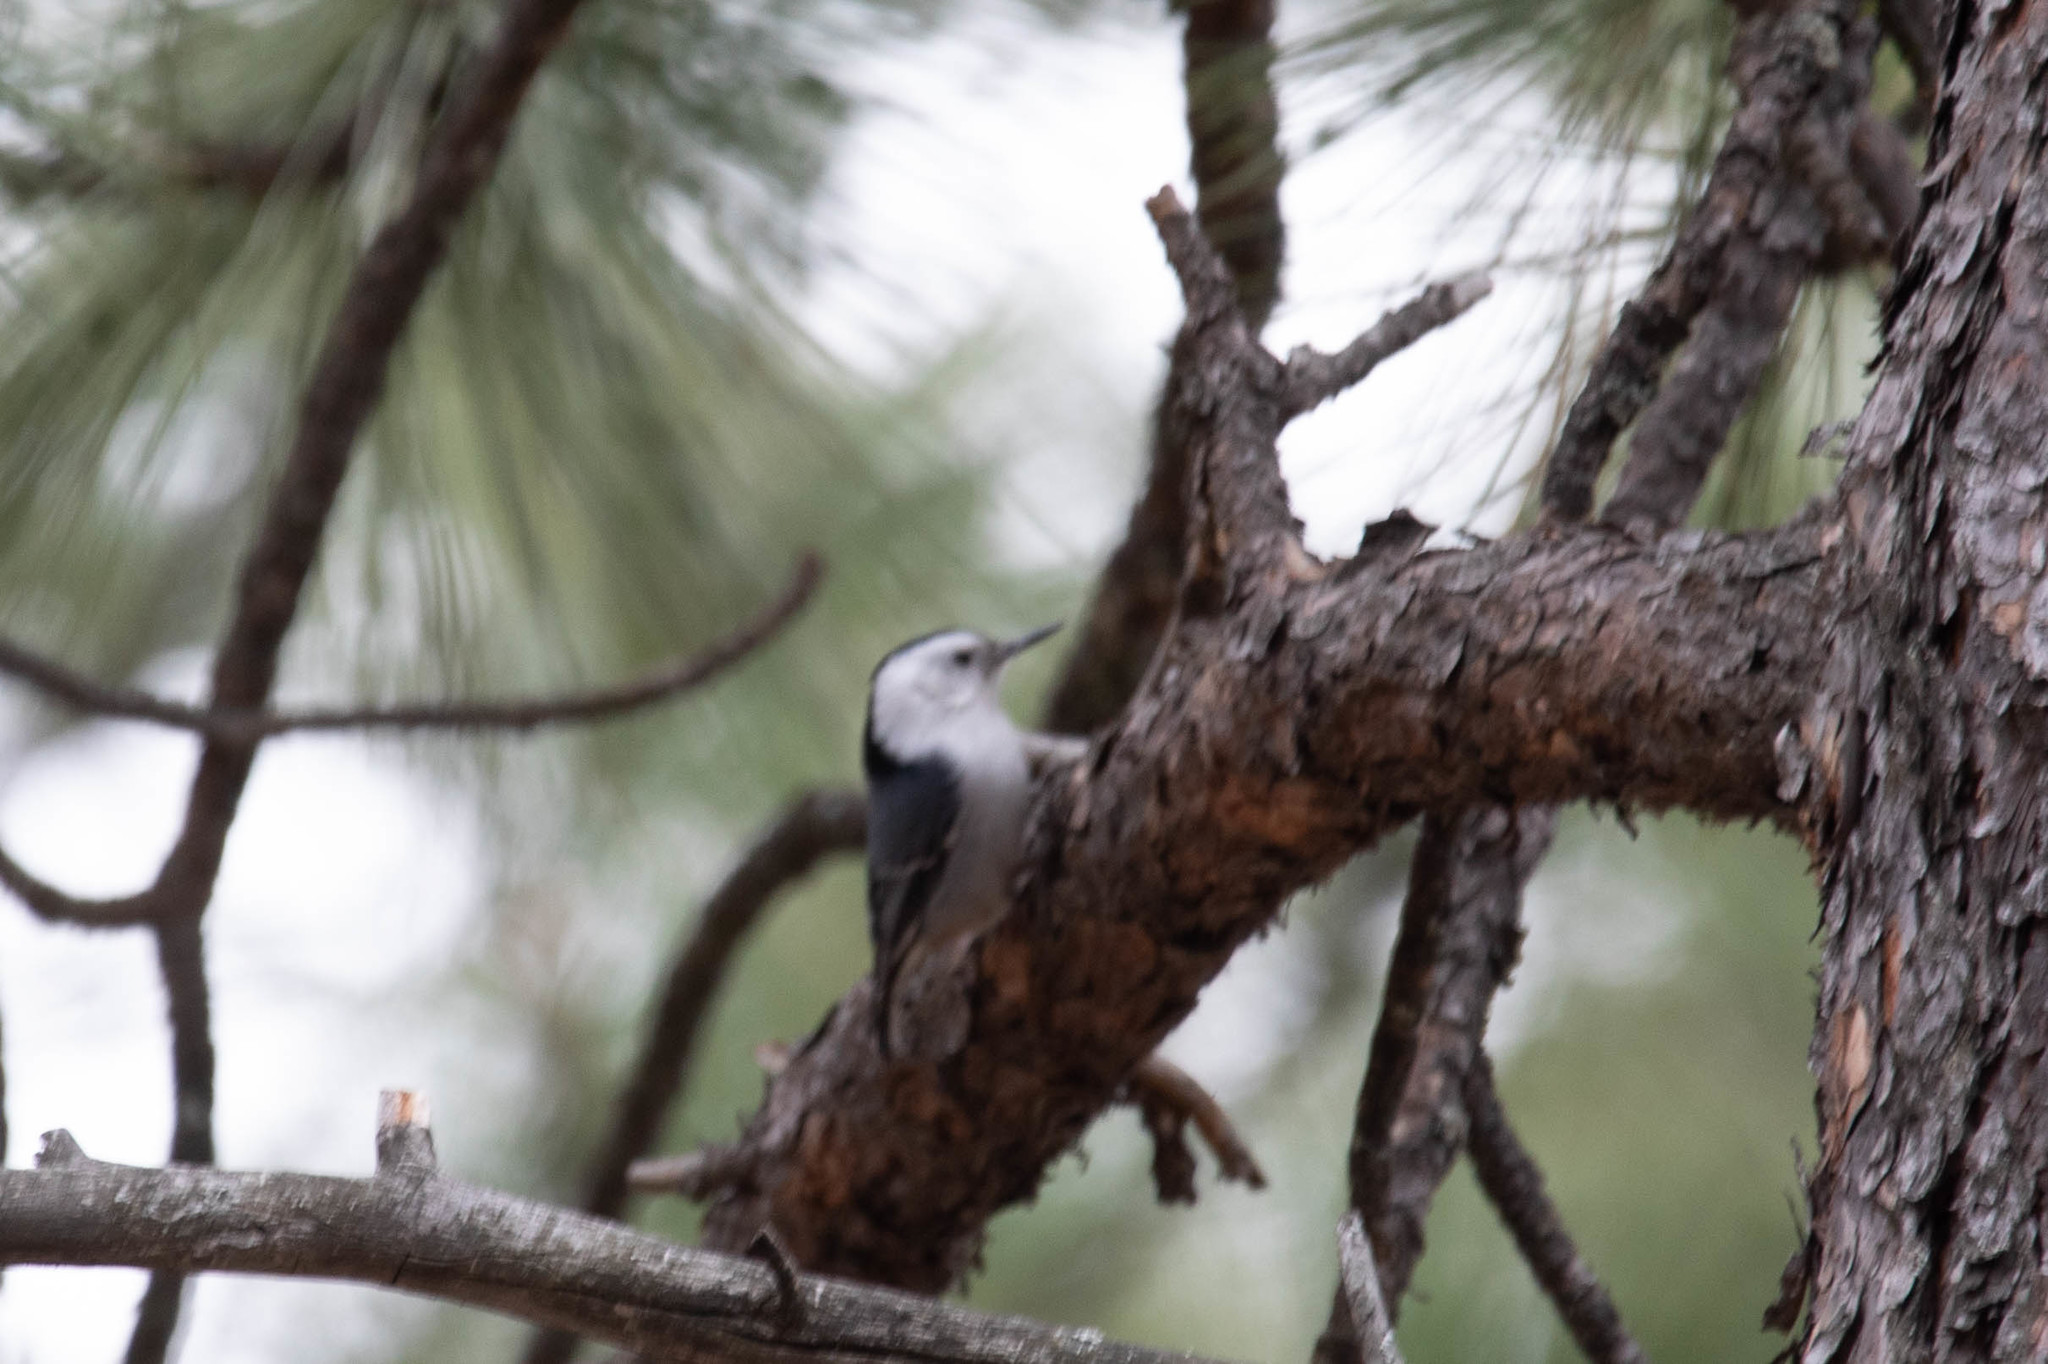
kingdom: Animalia
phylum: Chordata
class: Aves
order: Passeriformes
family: Sittidae
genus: Sitta
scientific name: Sitta carolinensis
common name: White-breasted nuthatch
